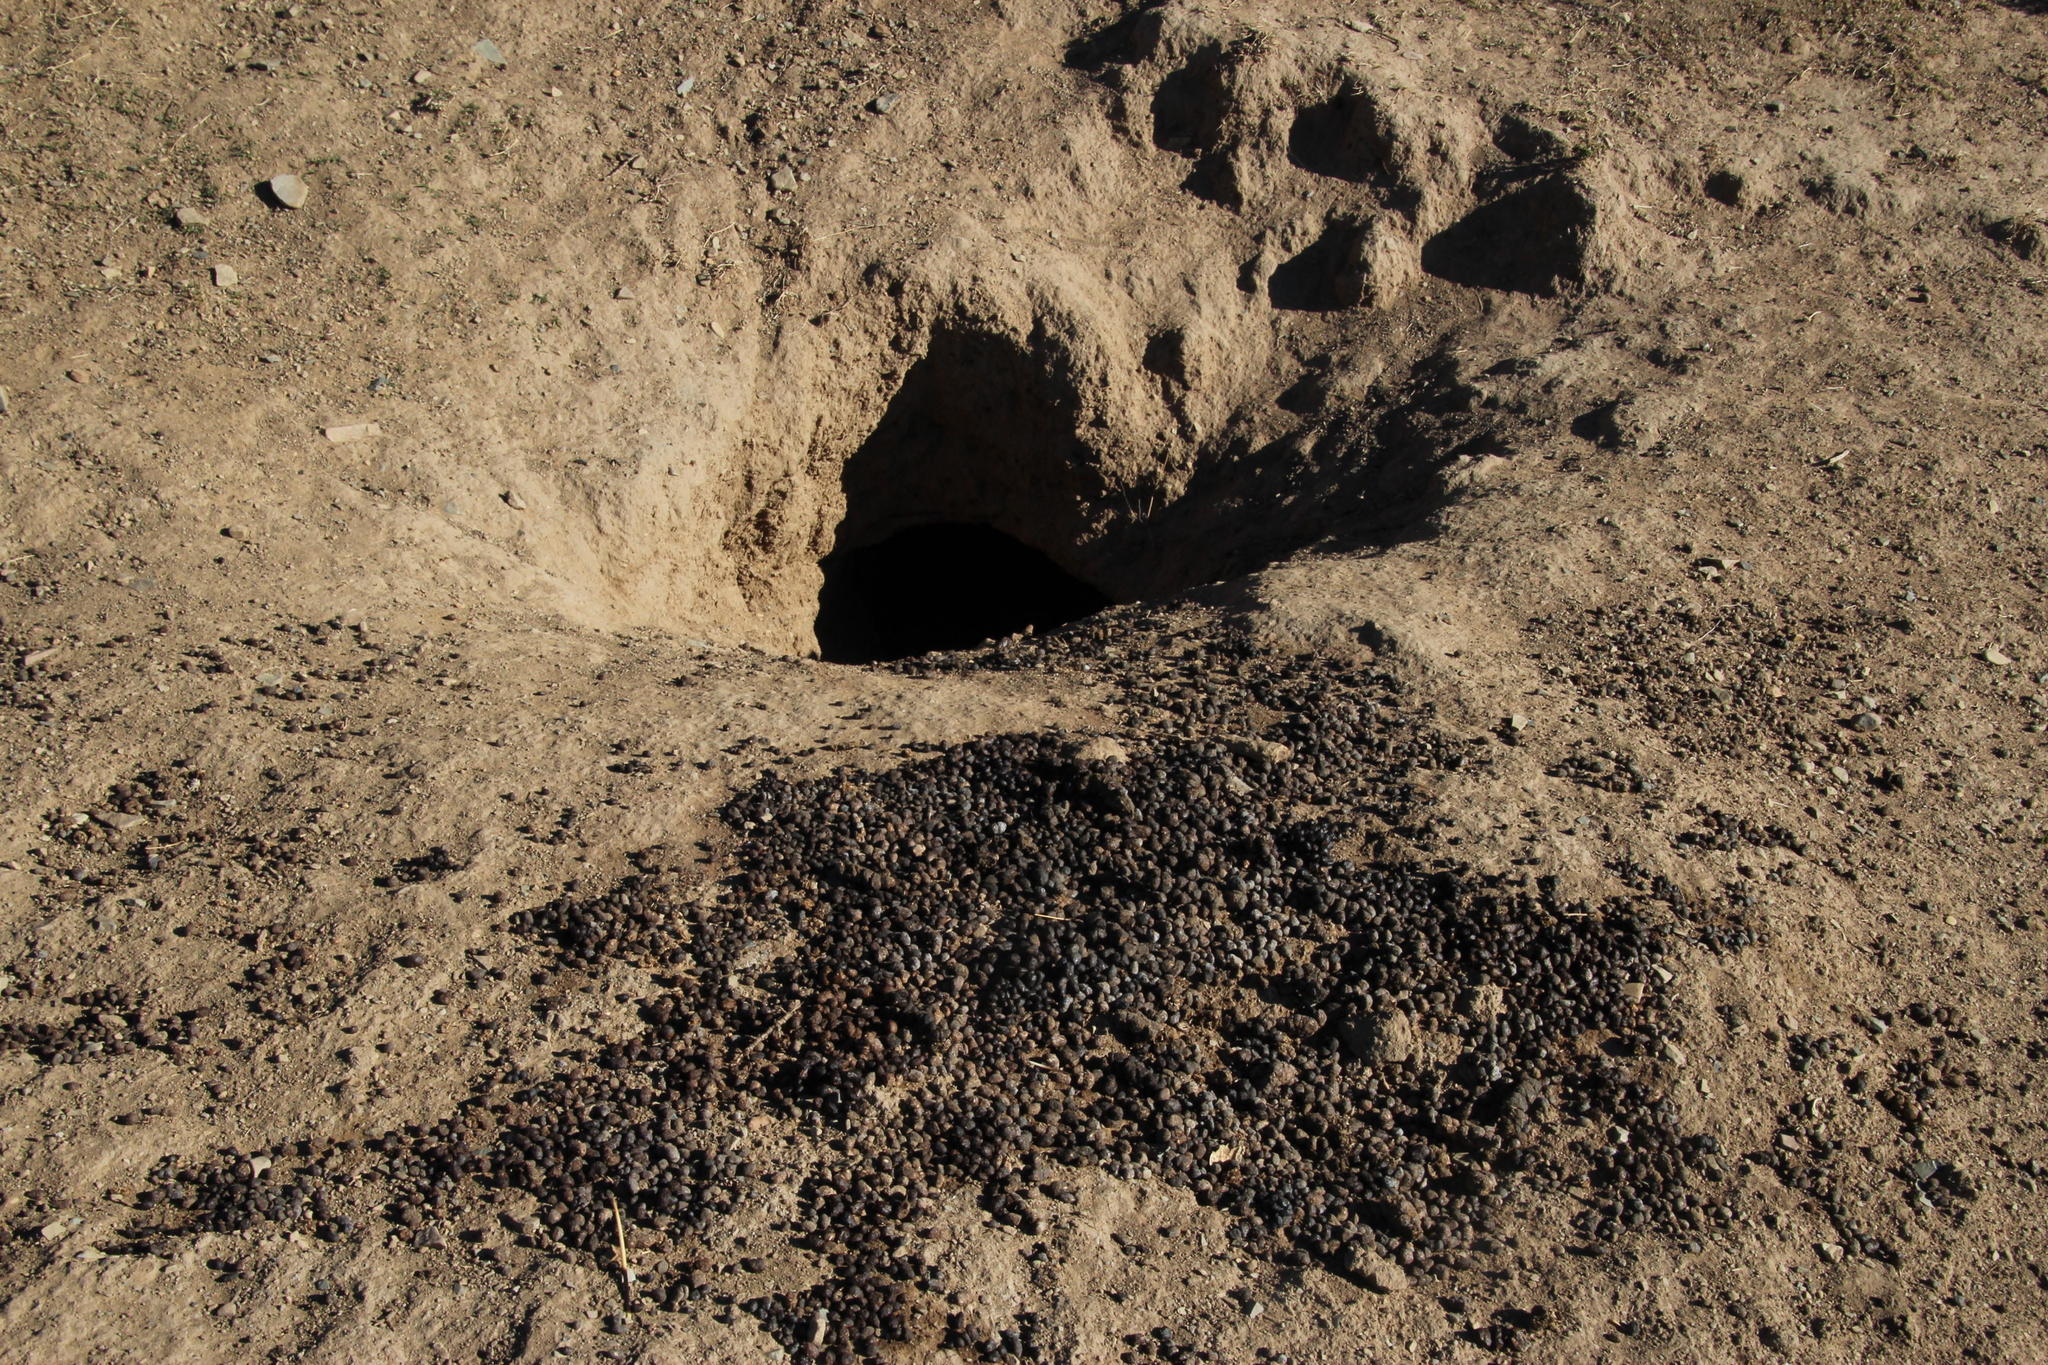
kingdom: Animalia
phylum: Chordata
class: Mammalia
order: Hyracoidea
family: Procaviidae
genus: Procavia
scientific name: Procavia capensis
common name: Rock hyrax
